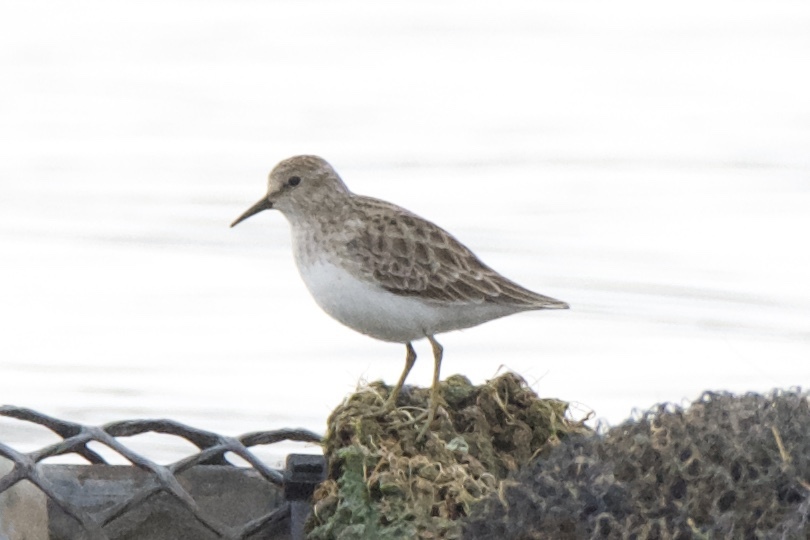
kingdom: Animalia
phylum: Chordata
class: Aves
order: Charadriiformes
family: Scolopacidae
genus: Calidris
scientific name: Calidris minutilla
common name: Least sandpiper
